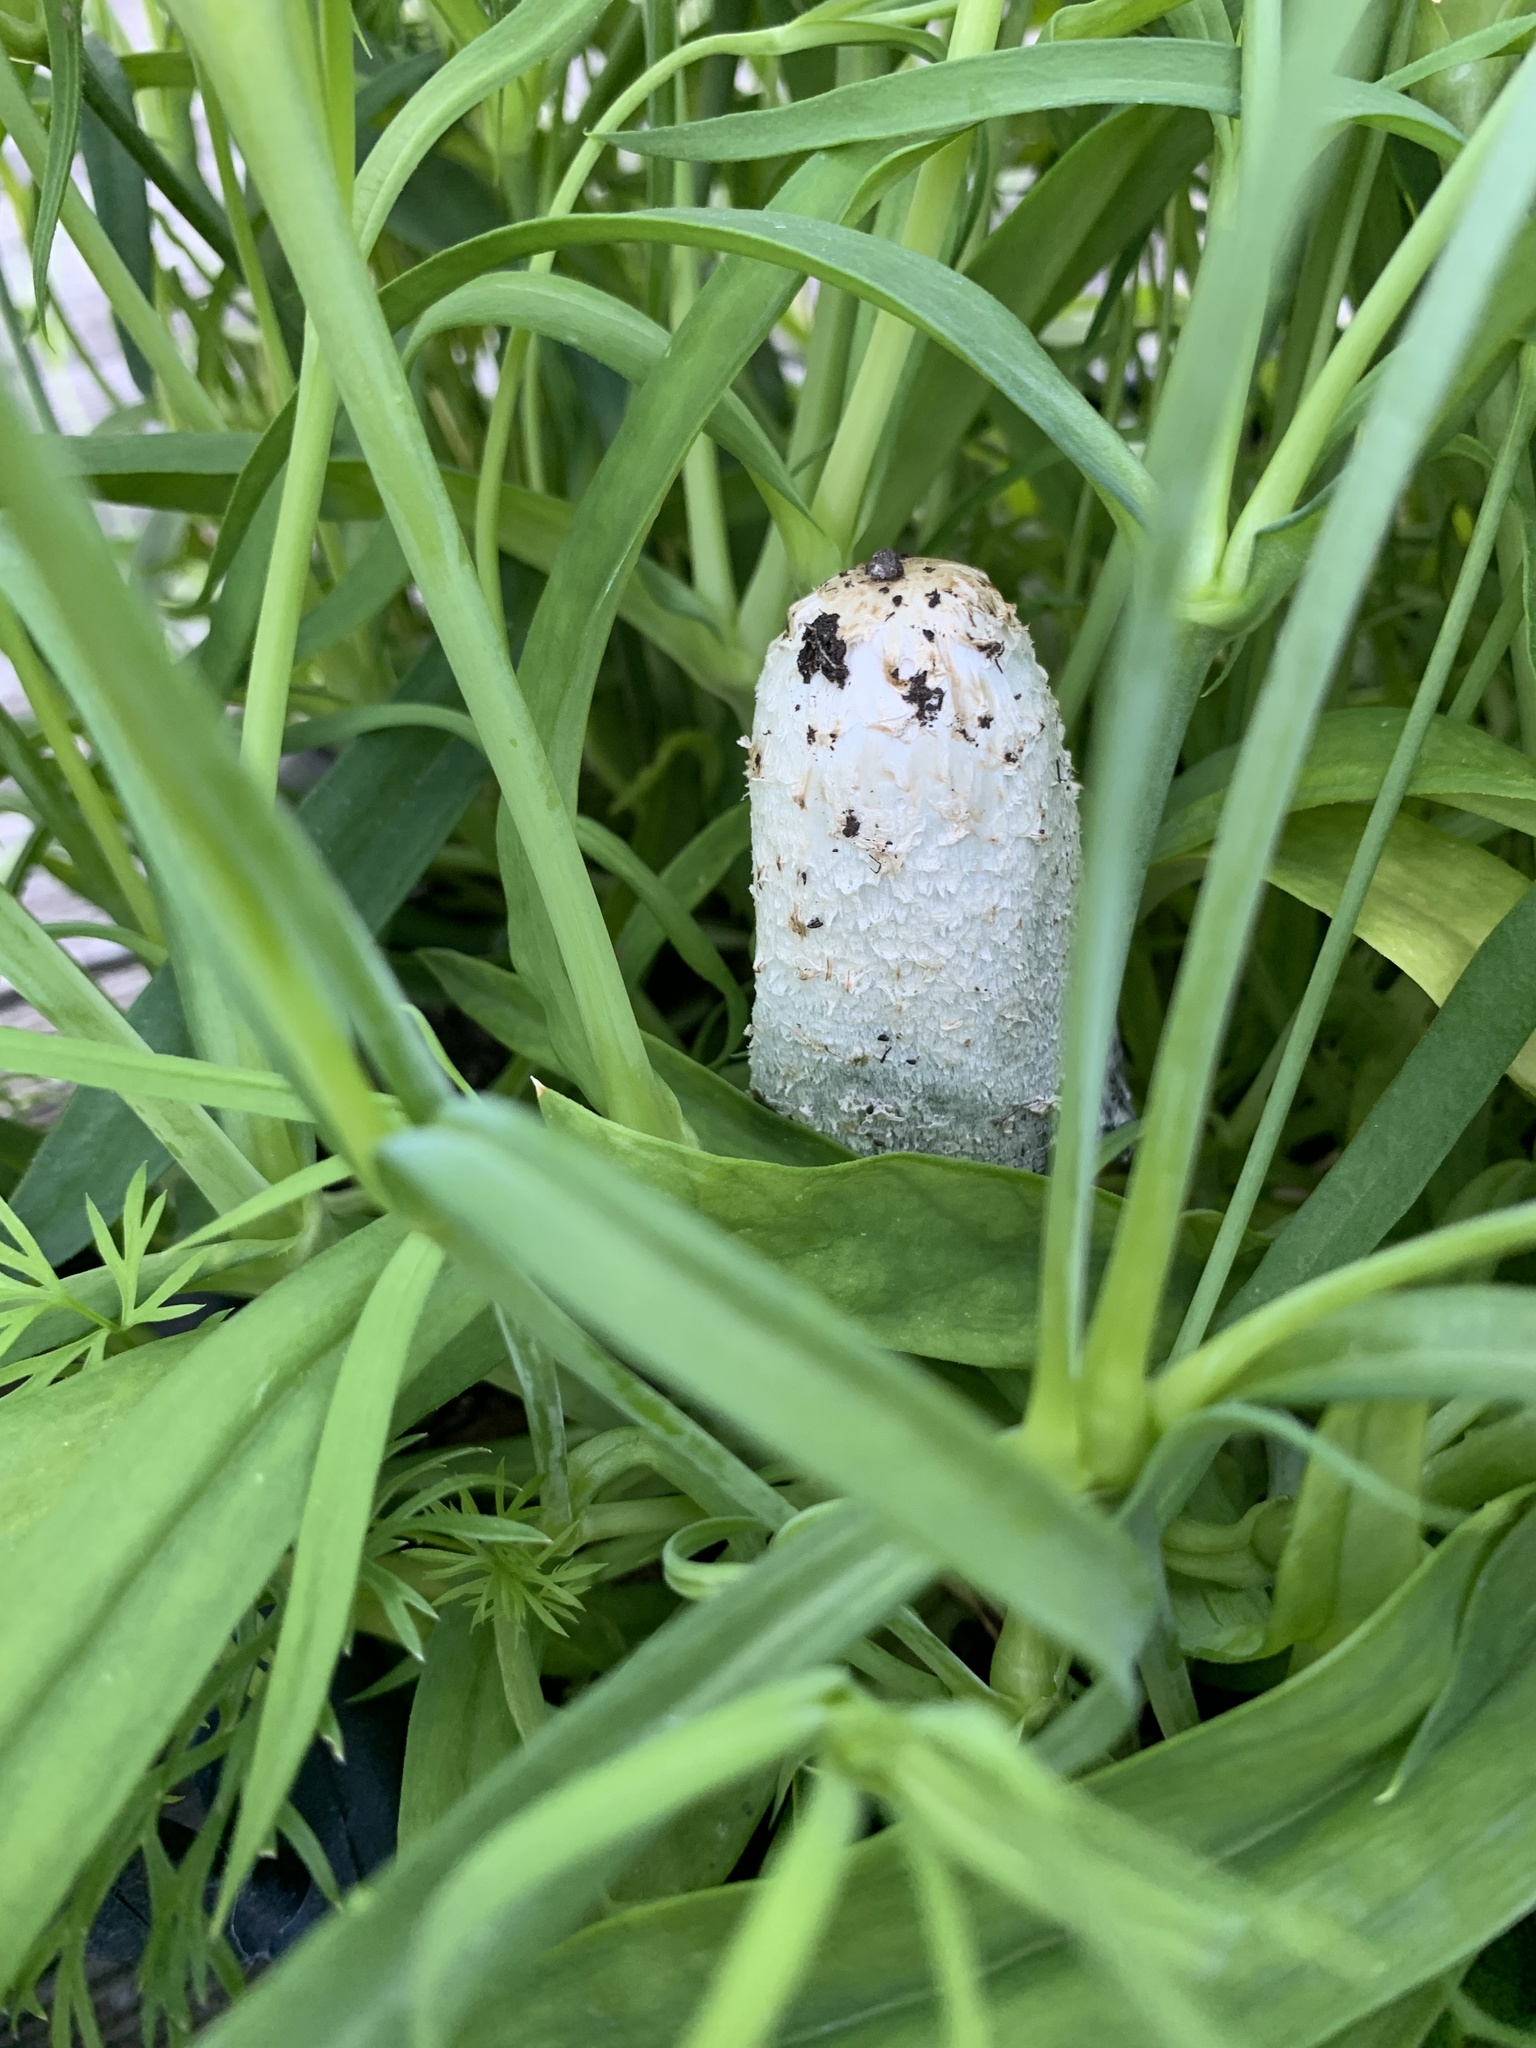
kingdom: Fungi
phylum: Basidiomycota
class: Agaricomycetes
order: Agaricales
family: Agaricaceae
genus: Coprinus
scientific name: Coprinus comatus
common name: Lawyer's wig
